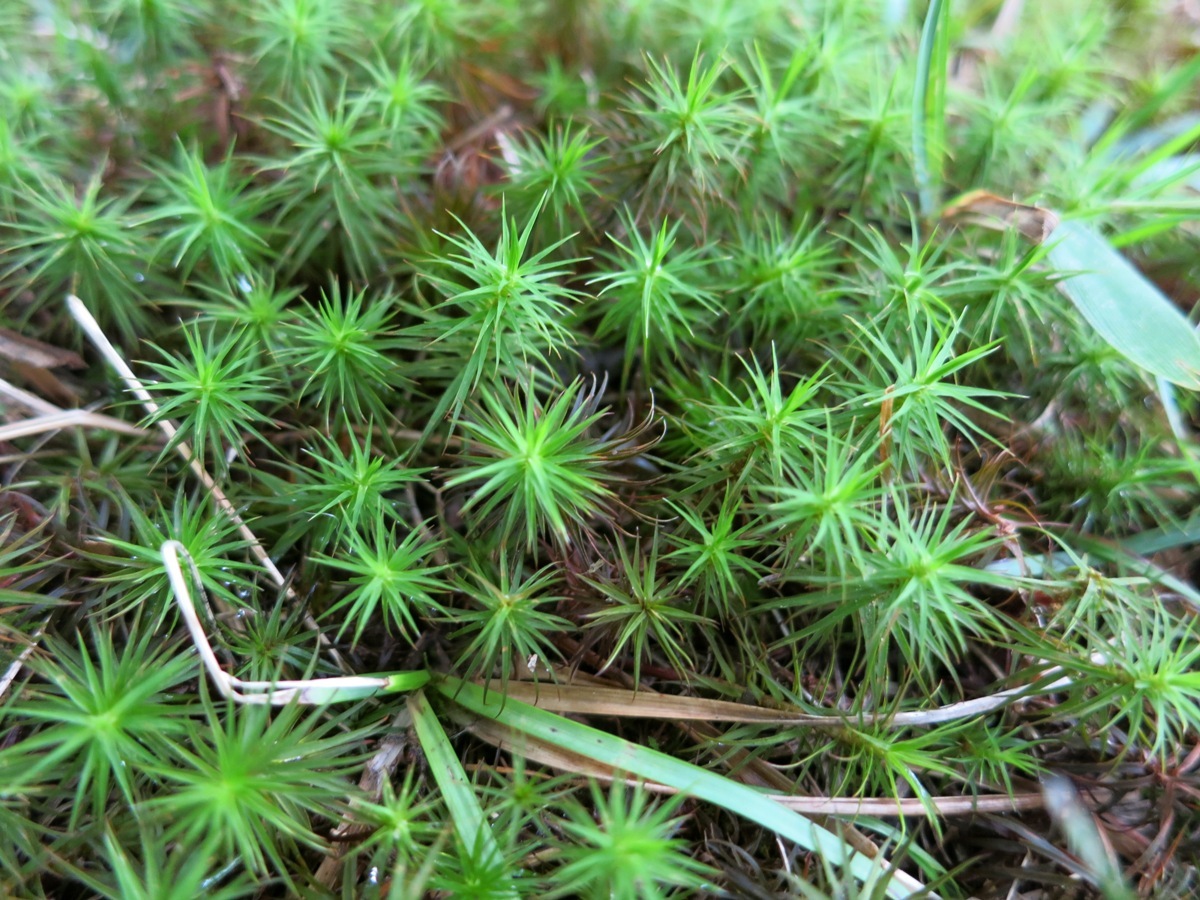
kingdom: Plantae
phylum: Bryophyta
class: Polytrichopsida
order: Polytrichales
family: Polytrichaceae
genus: Polytrichum
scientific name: Polytrichum commune
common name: Common haircap
